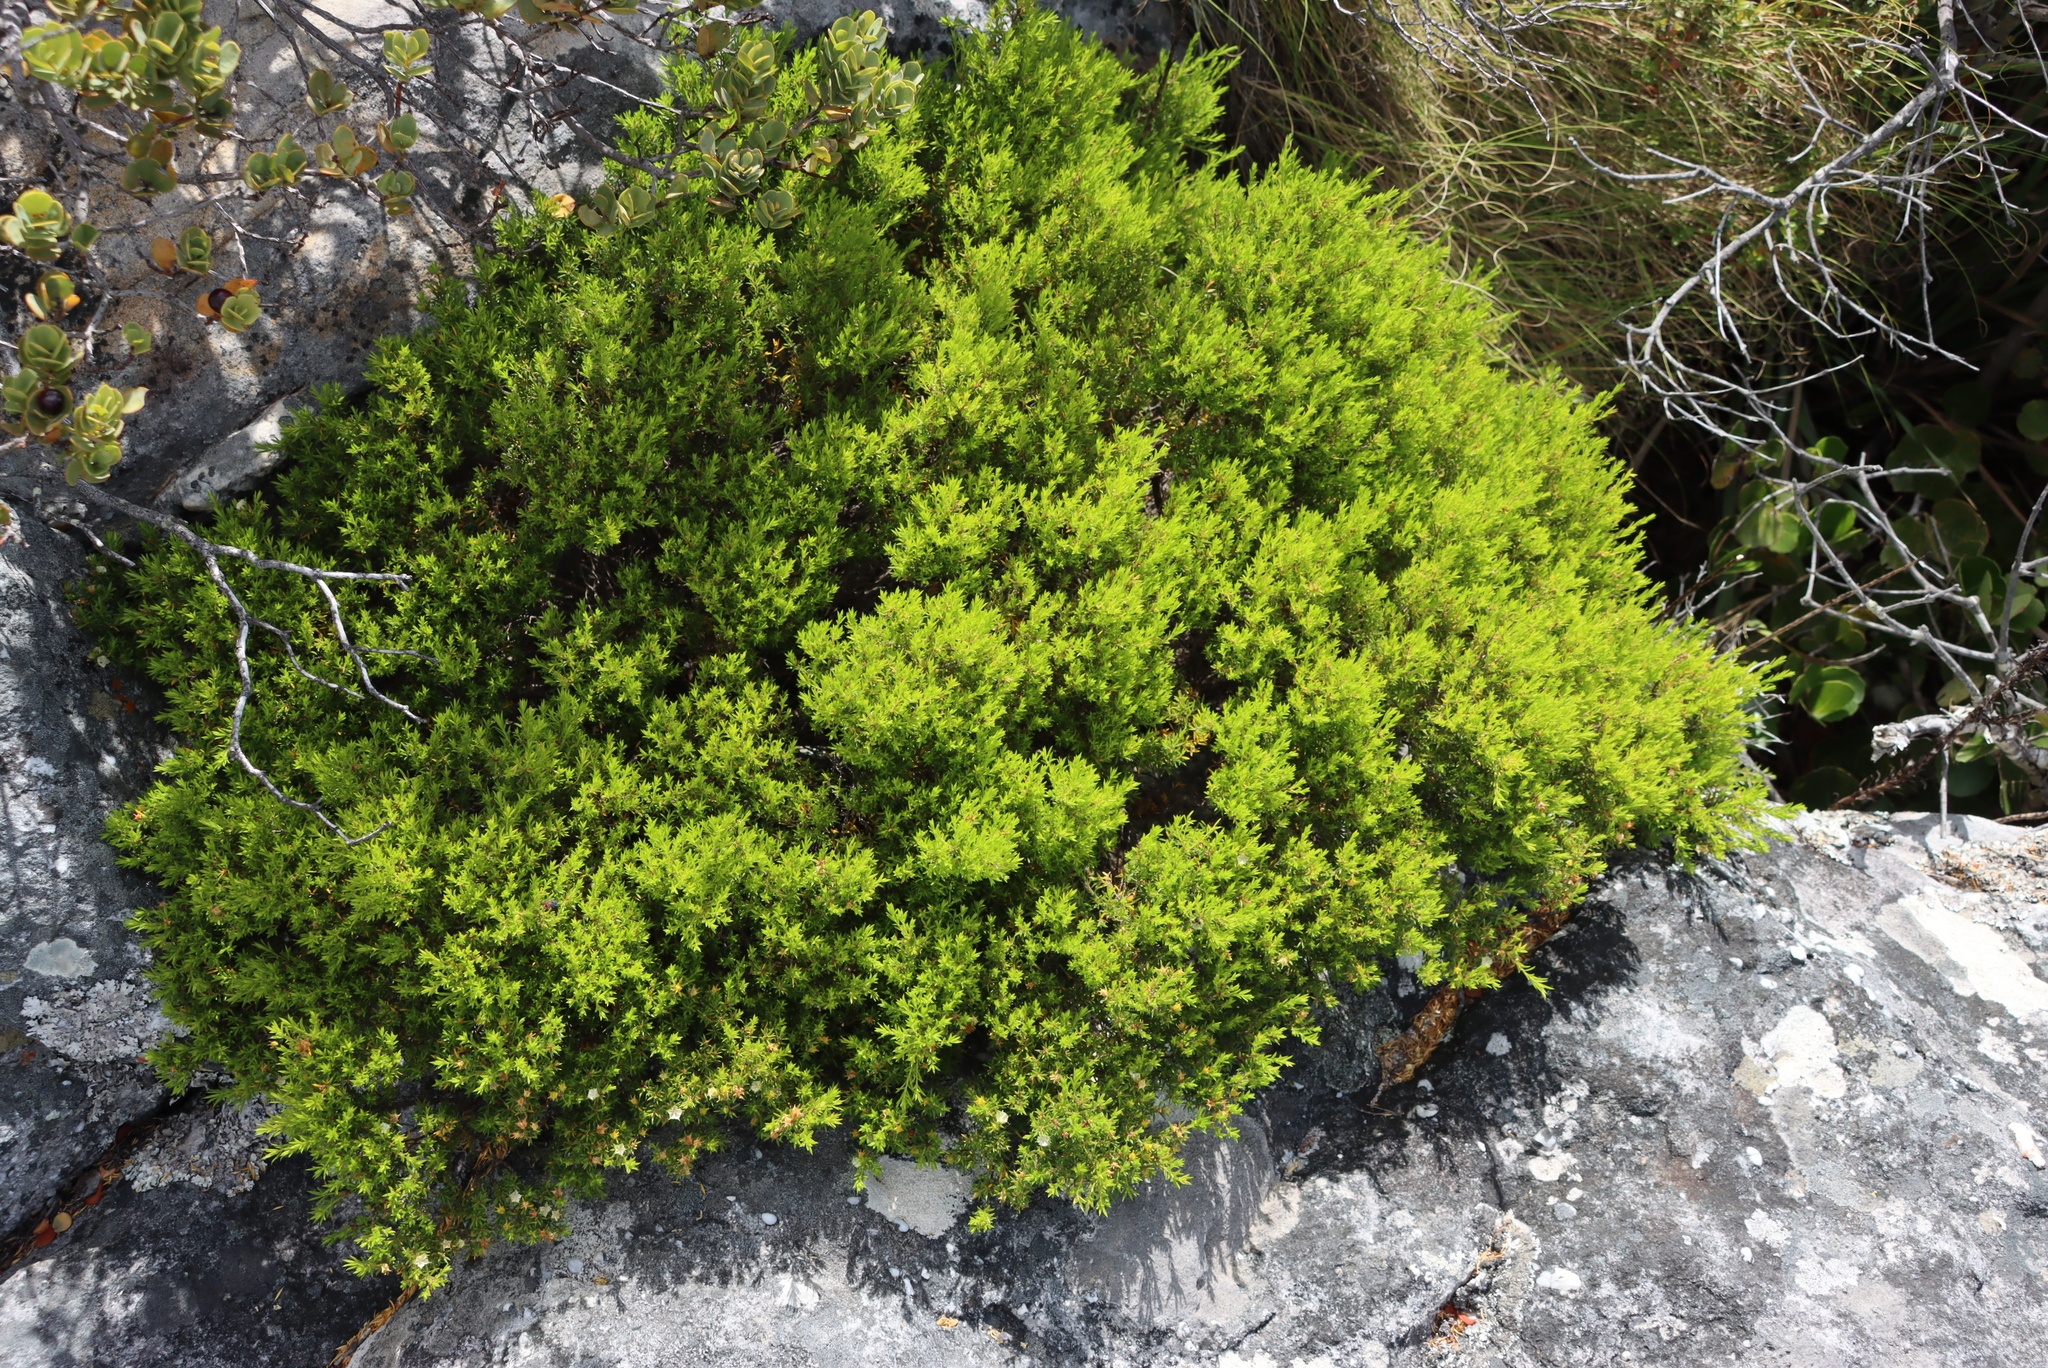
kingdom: Plantae
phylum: Tracheophyta
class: Magnoliopsida
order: Sapindales
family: Rutaceae
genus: Coleonema
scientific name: Coleonema album
